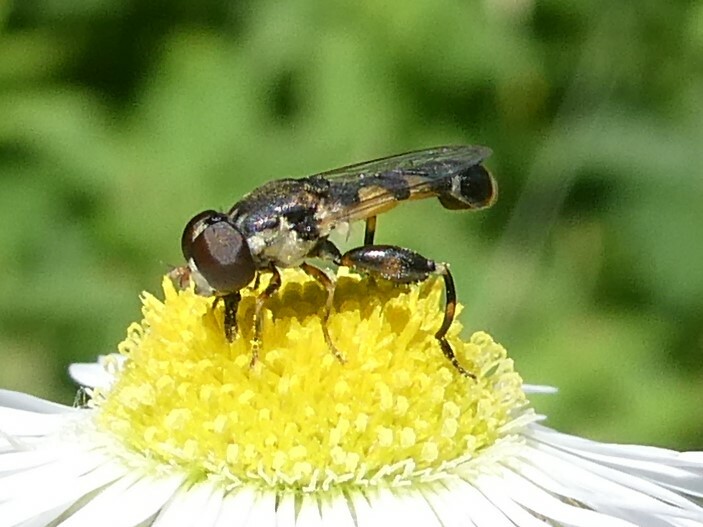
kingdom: Animalia
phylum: Arthropoda
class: Insecta
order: Diptera
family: Syrphidae
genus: Syritta
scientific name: Syritta pipiens
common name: Hover fly
